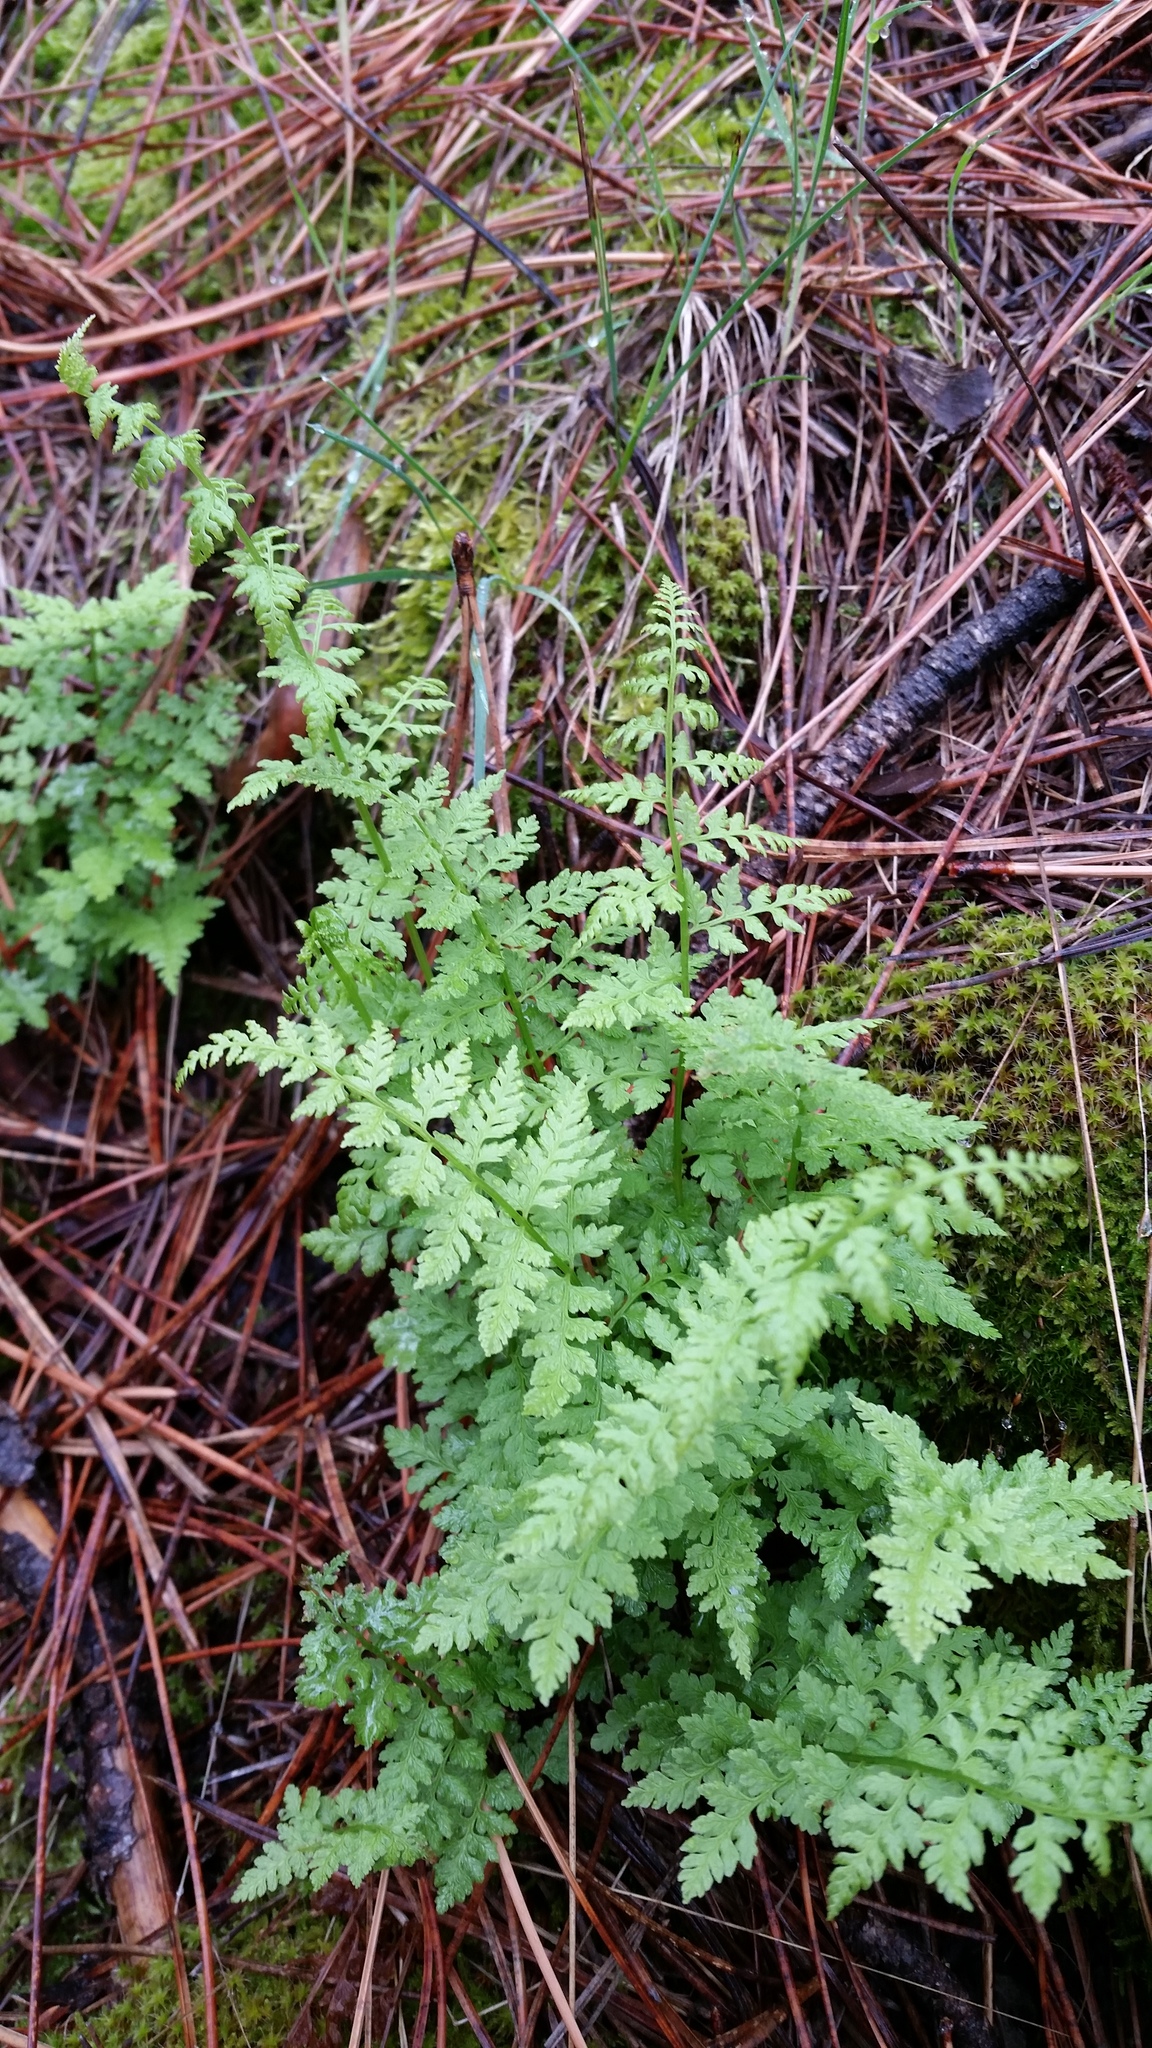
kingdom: Plantae
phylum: Tracheophyta
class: Polypodiopsida
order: Polypodiales
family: Cystopteridaceae
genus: Cystopteris
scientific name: Cystopteris fragilis
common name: Brittle bladder fern
